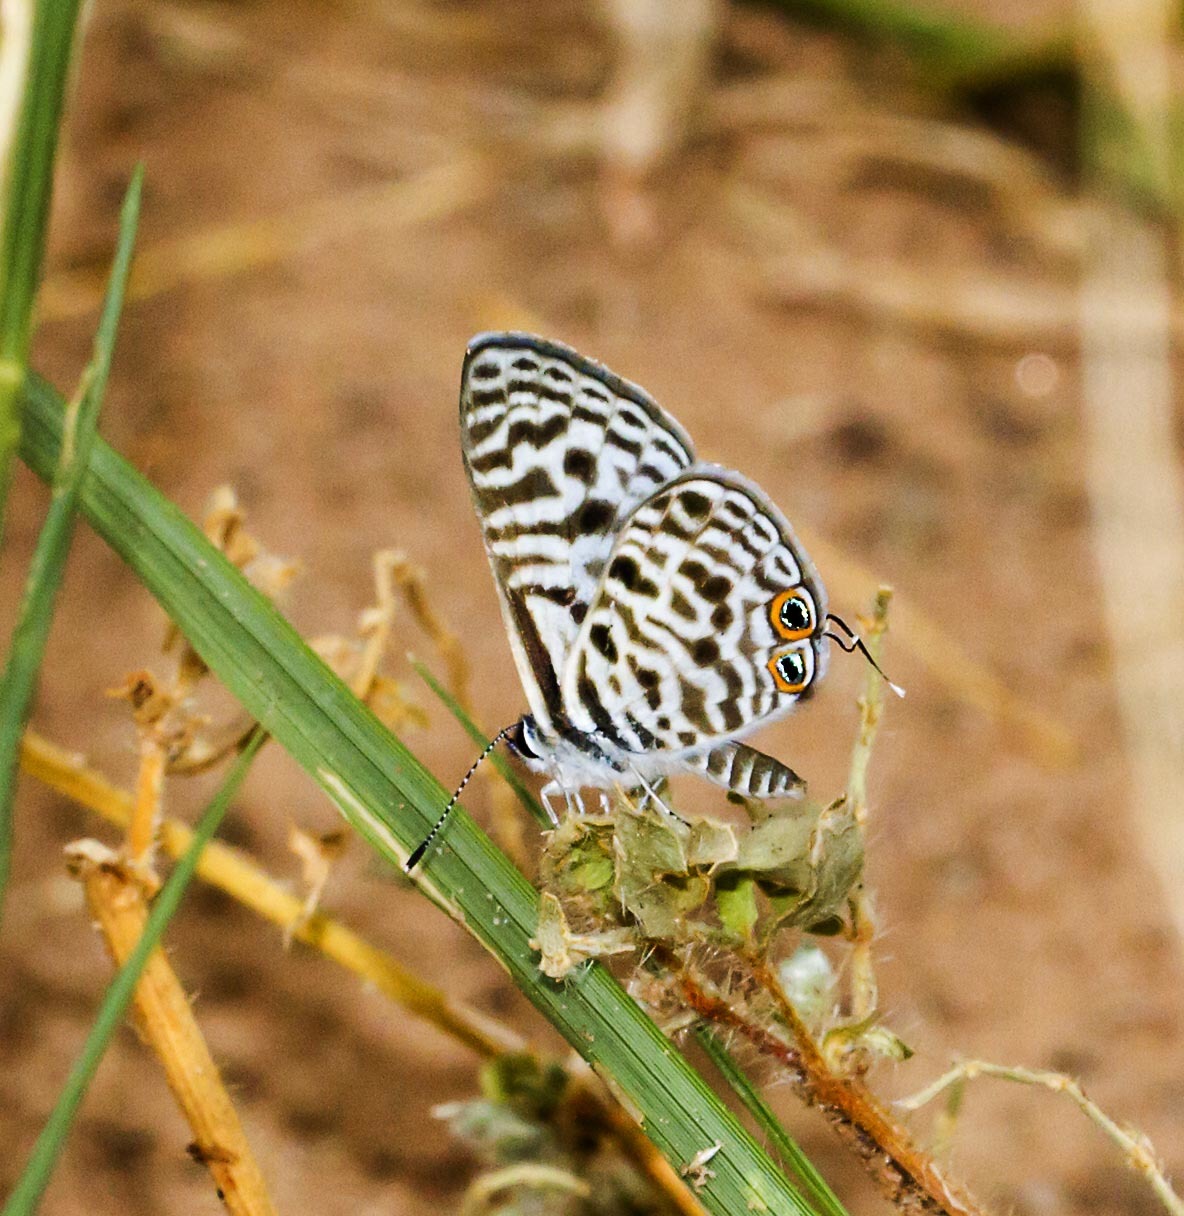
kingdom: Animalia
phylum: Arthropoda
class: Insecta
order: Lepidoptera
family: Lycaenidae
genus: Leptotes
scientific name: Leptotes
